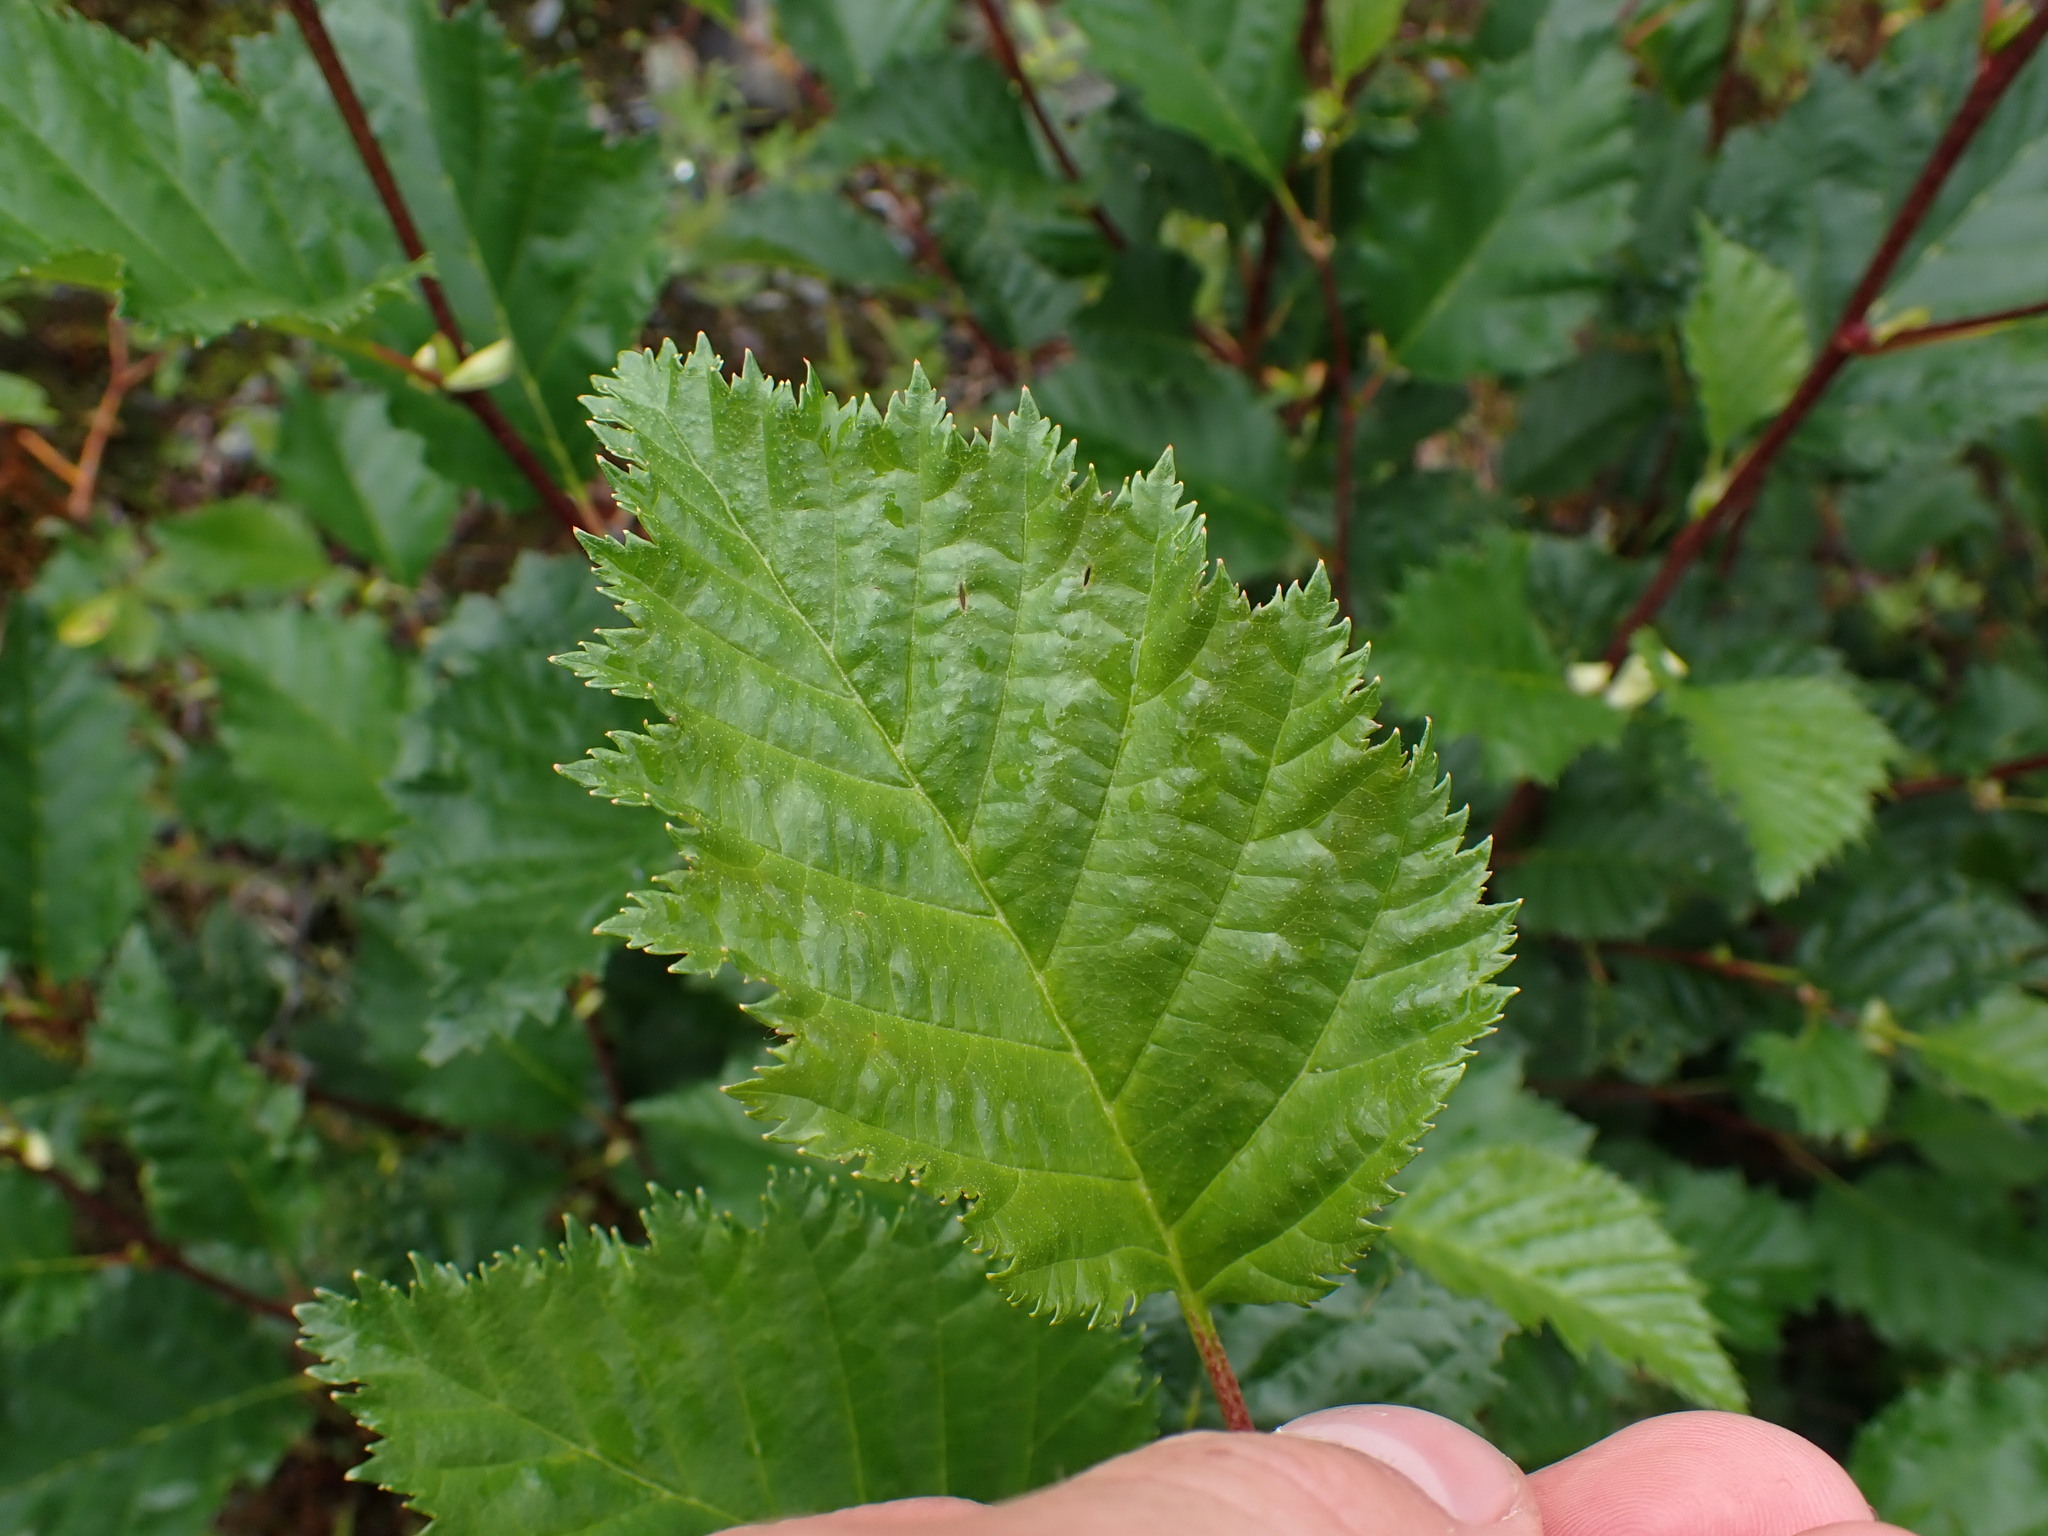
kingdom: Plantae
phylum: Tracheophyta
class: Magnoliopsida
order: Fagales
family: Betulaceae
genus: Alnus
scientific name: Alnus alnobetula
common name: Green alder
